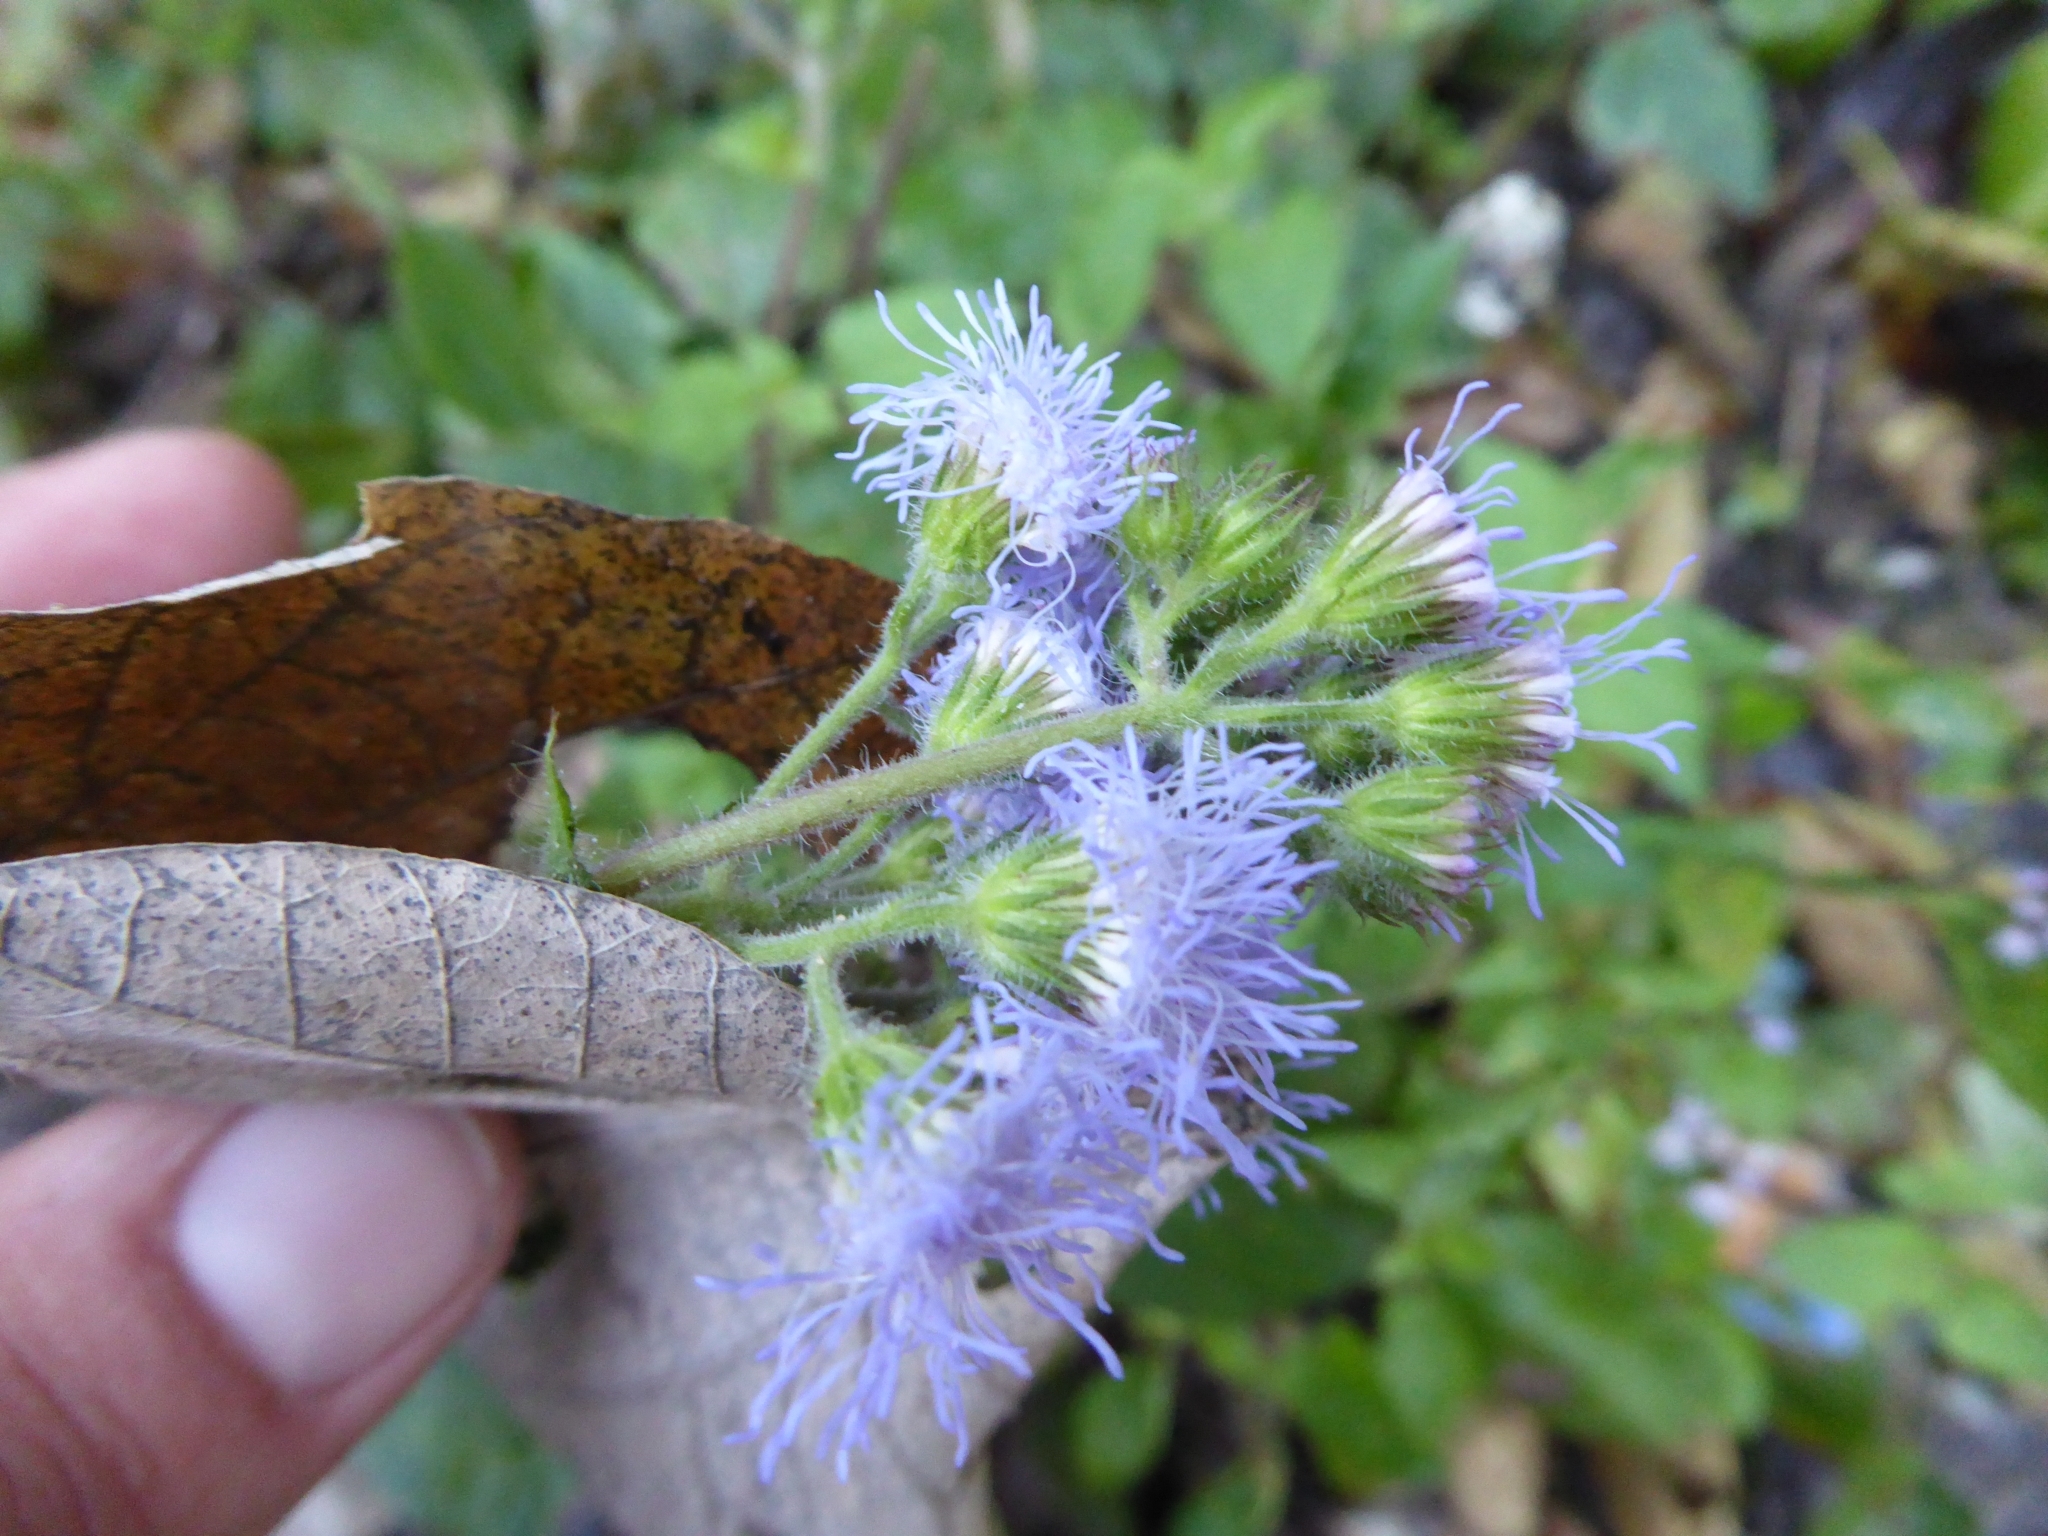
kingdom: Plantae
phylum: Tracheophyta
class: Magnoliopsida
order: Asterales
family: Asteraceae
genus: Ageratum
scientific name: Ageratum houstonianum
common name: Bluemink
